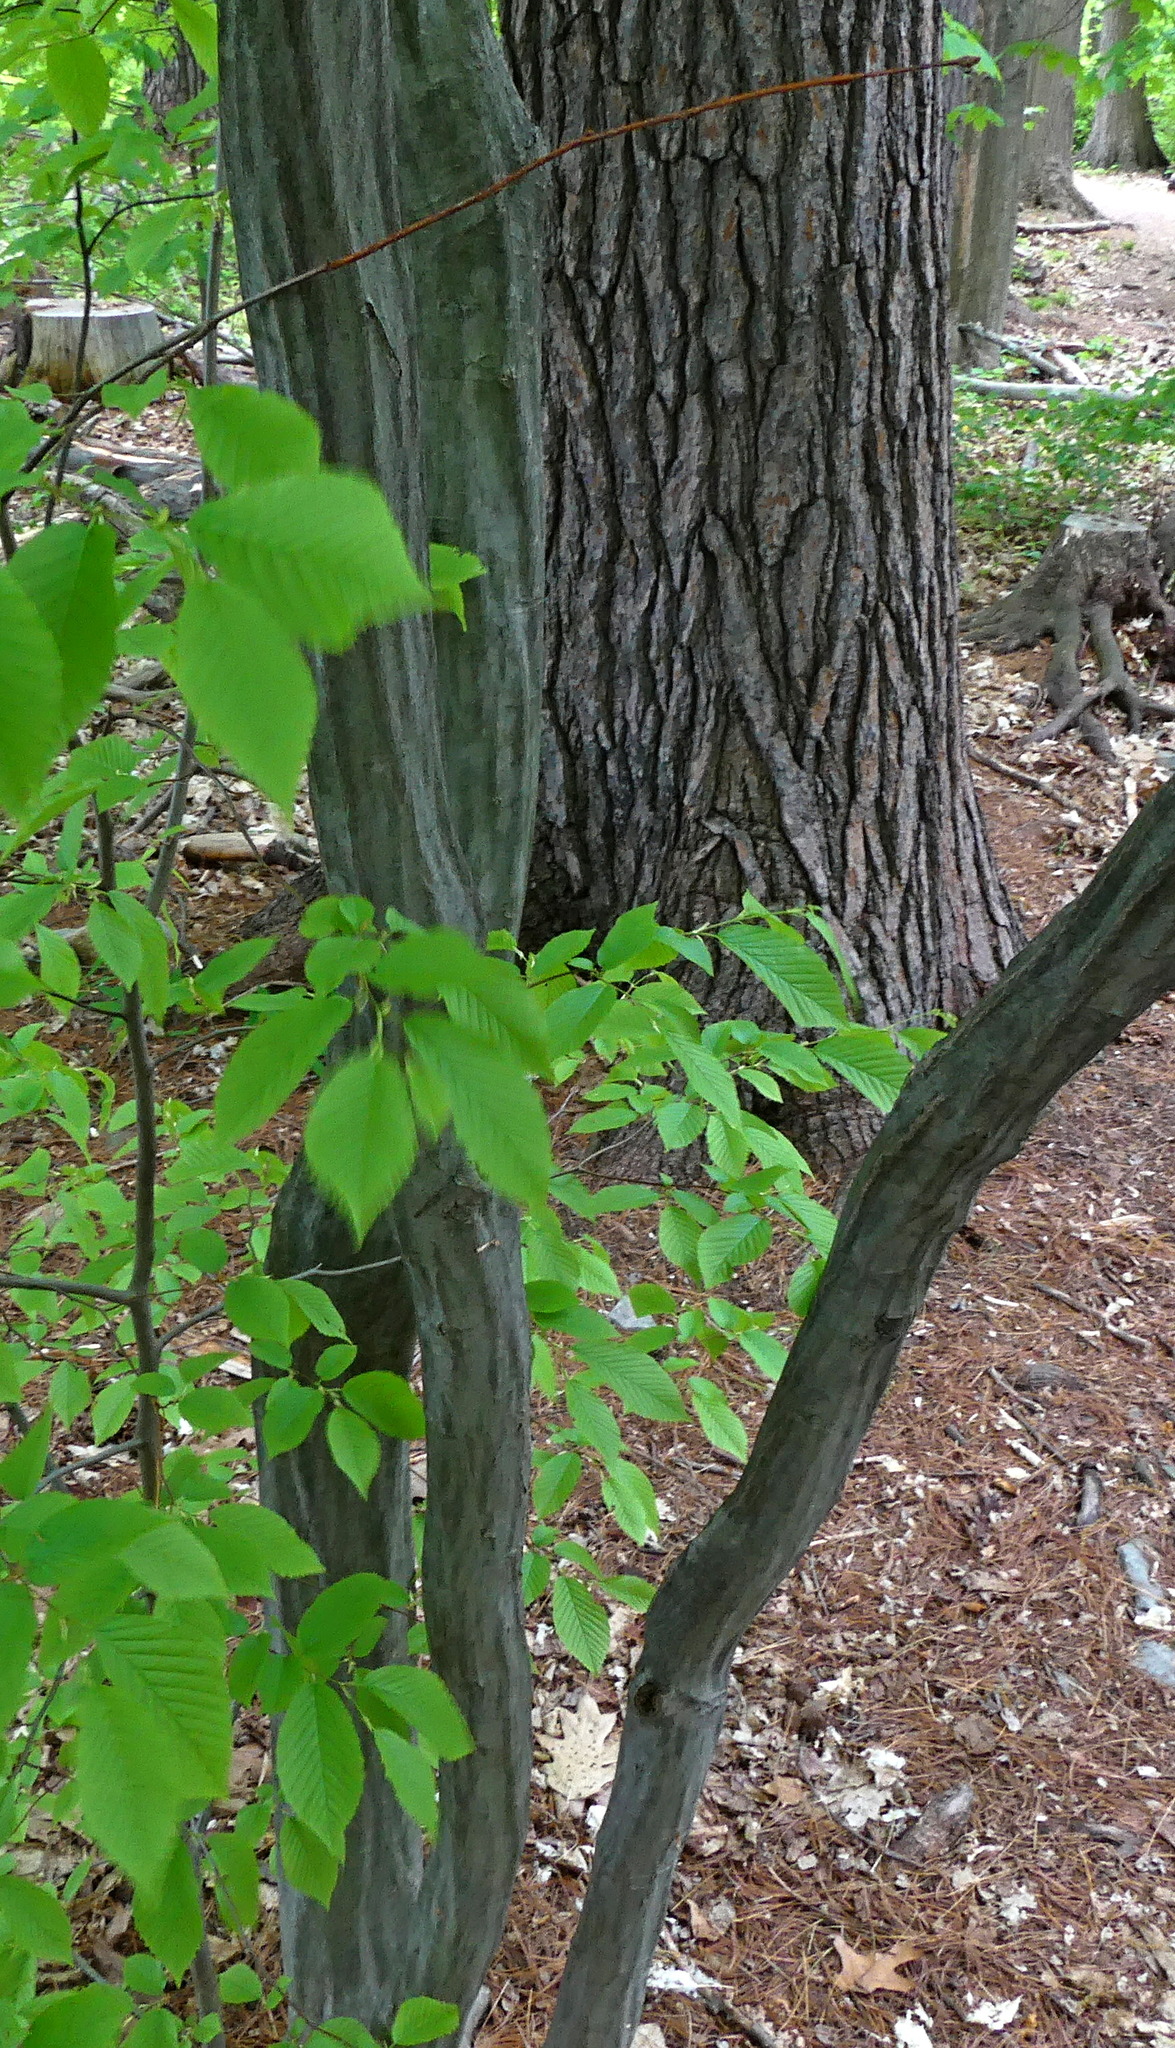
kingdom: Plantae
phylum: Tracheophyta
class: Magnoliopsida
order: Fagales
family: Betulaceae
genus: Carpinus
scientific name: Carpinus caroliniana
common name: American hornbeam
